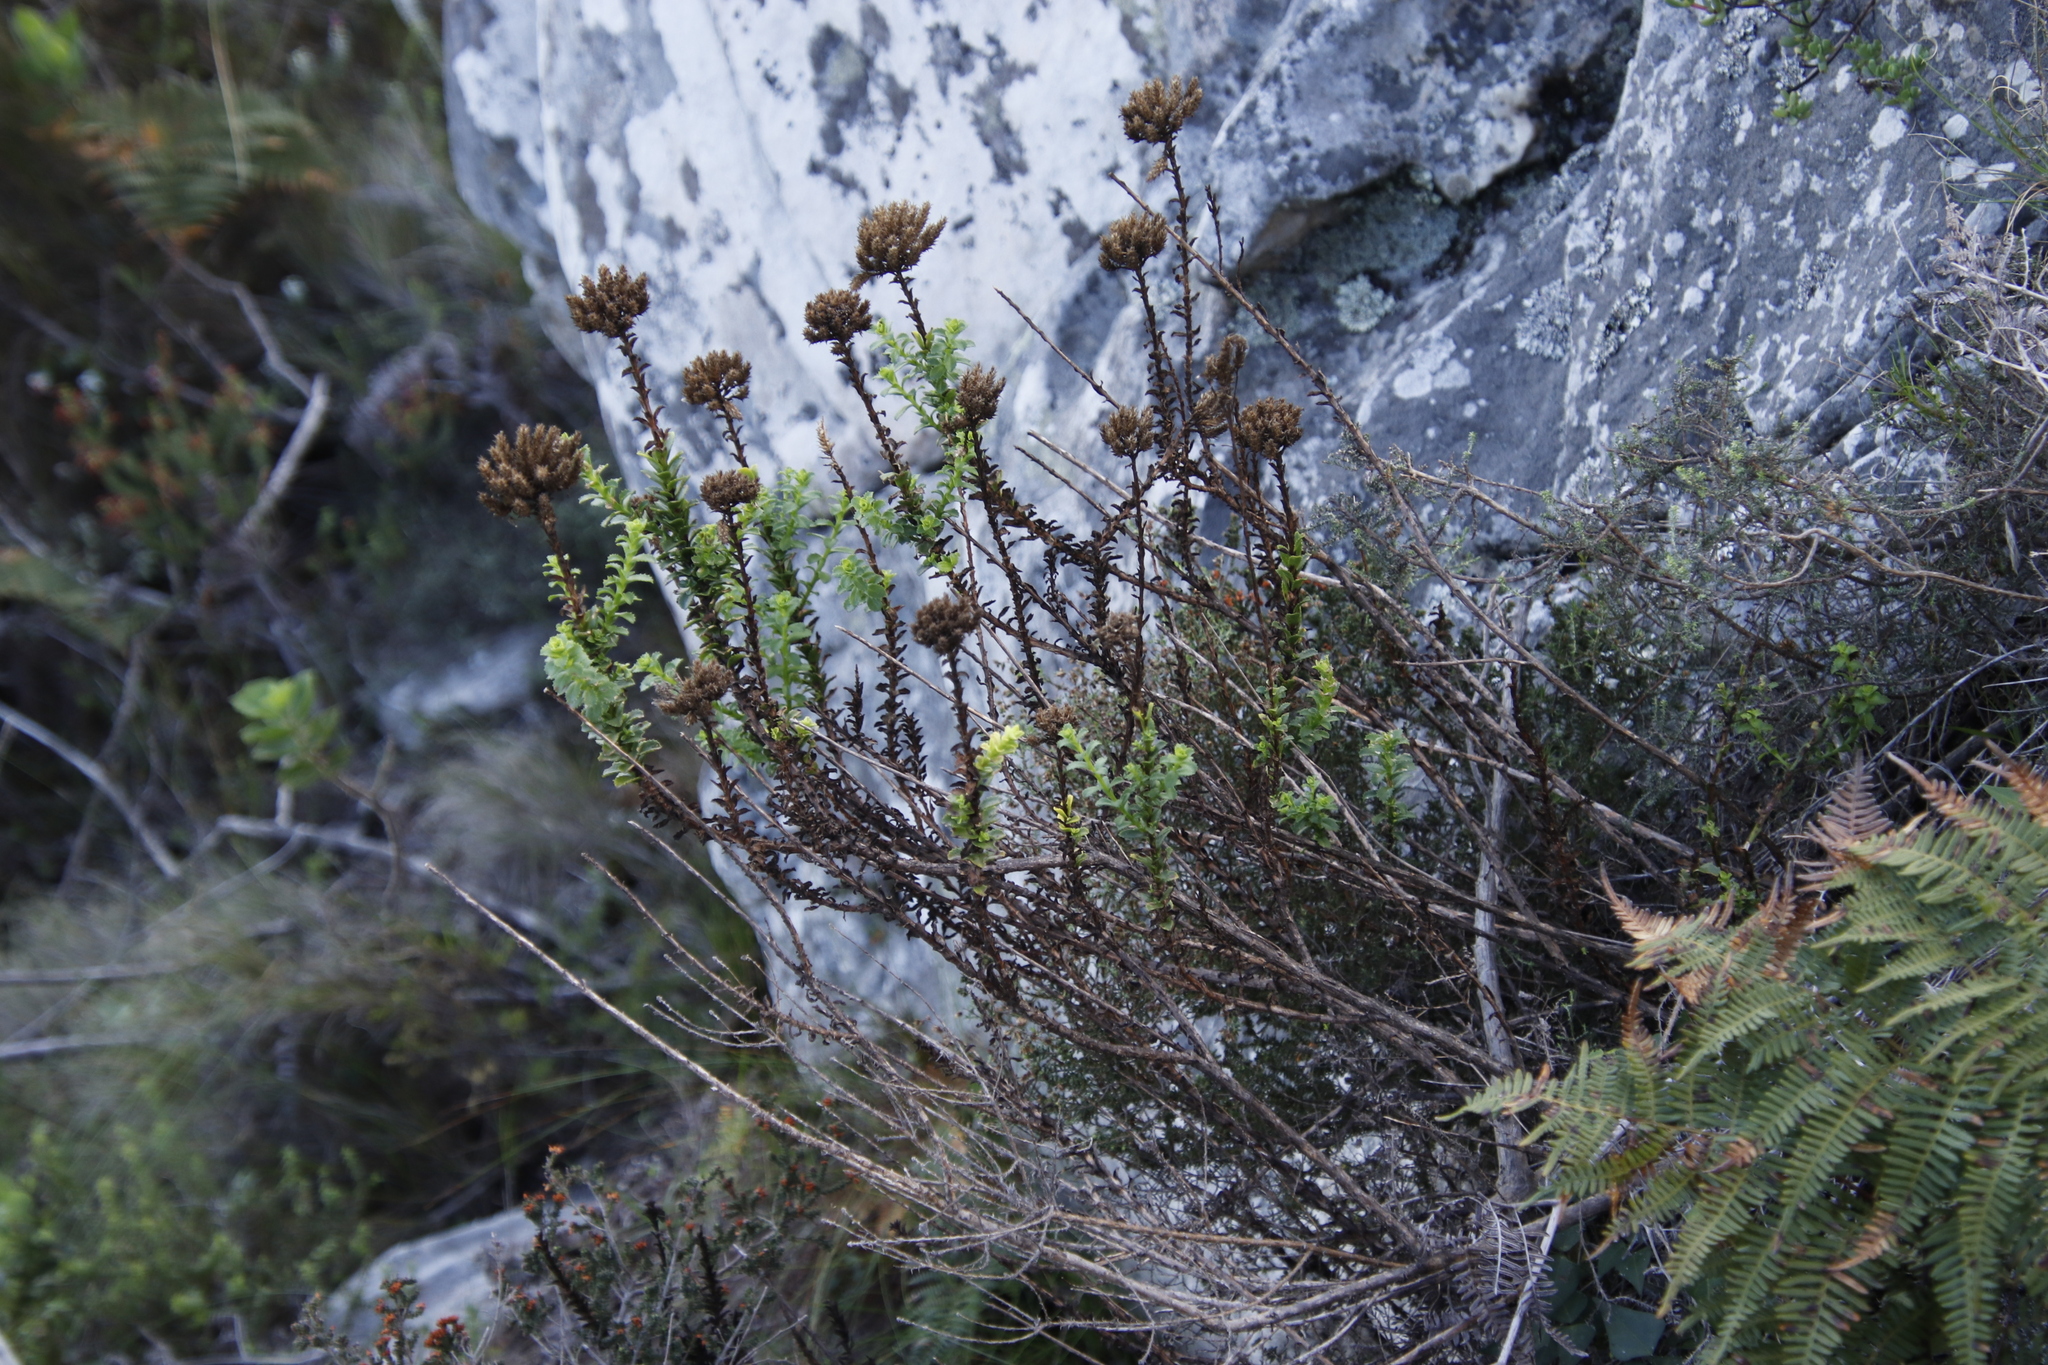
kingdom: Plantae
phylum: Tracheophyta
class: Magnoliopsida
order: Lamiales
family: Scrophulariaceae
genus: Pseudoselago
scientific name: Pseudoselago serrata
